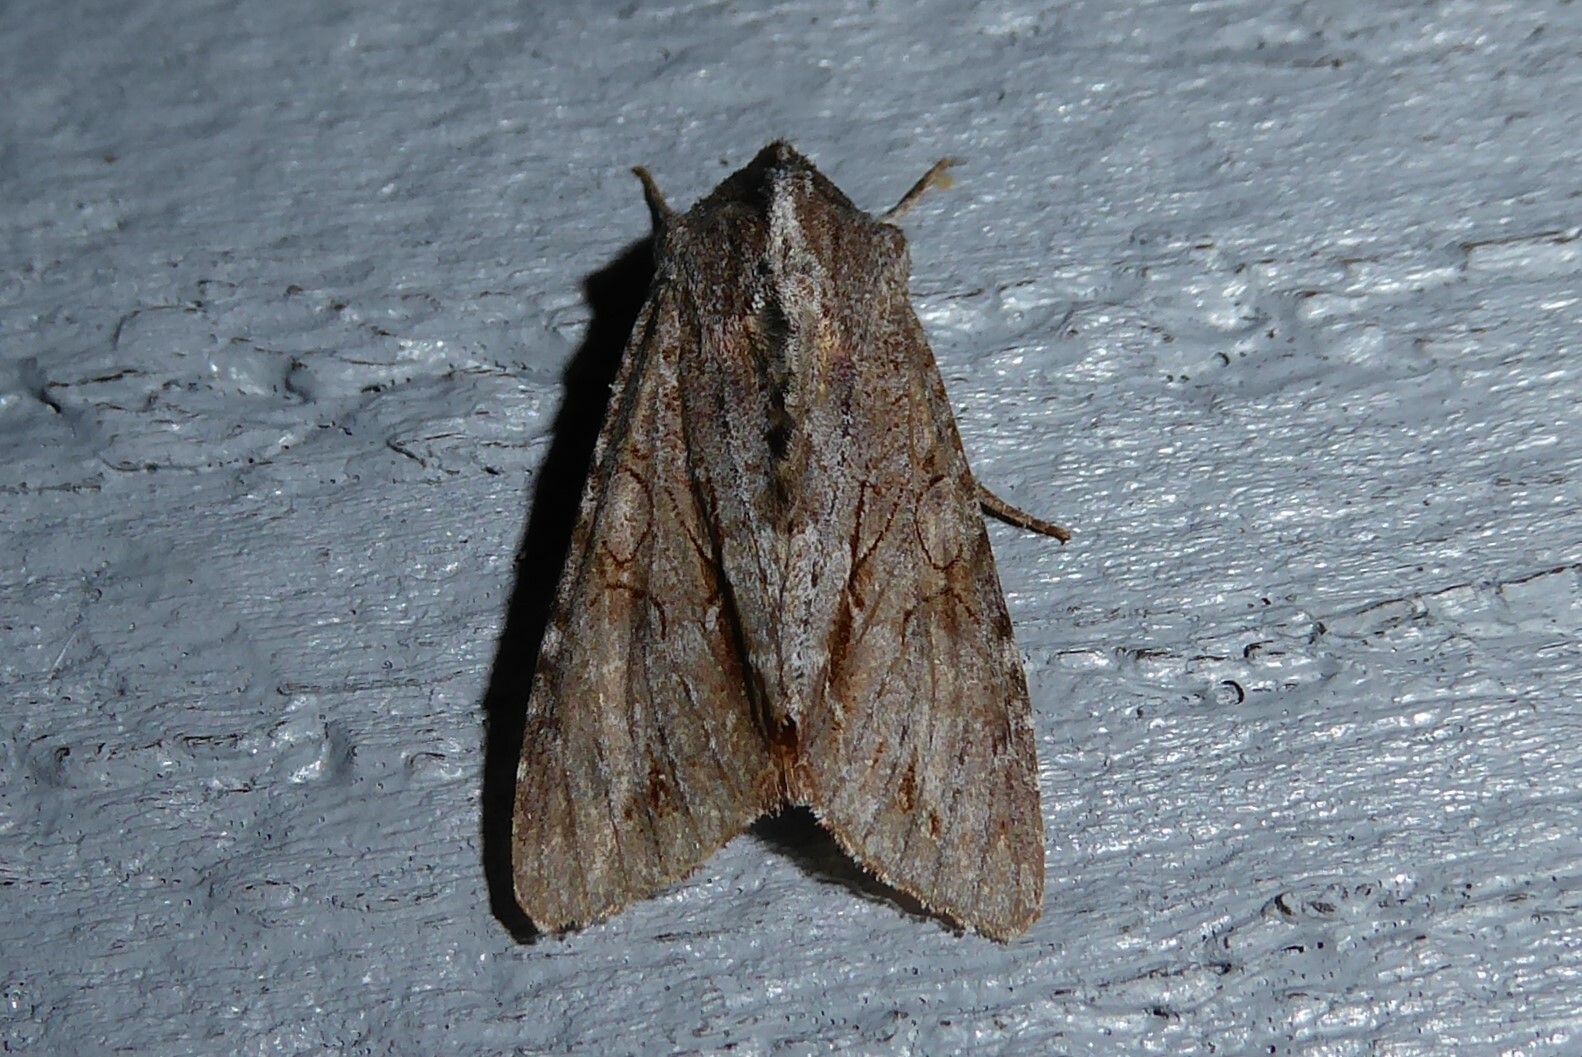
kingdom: Animalia
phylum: Arthropoda
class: Insecta
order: Lepidoptera
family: Noctuidae
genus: Ichneutica
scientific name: Ichneutica
